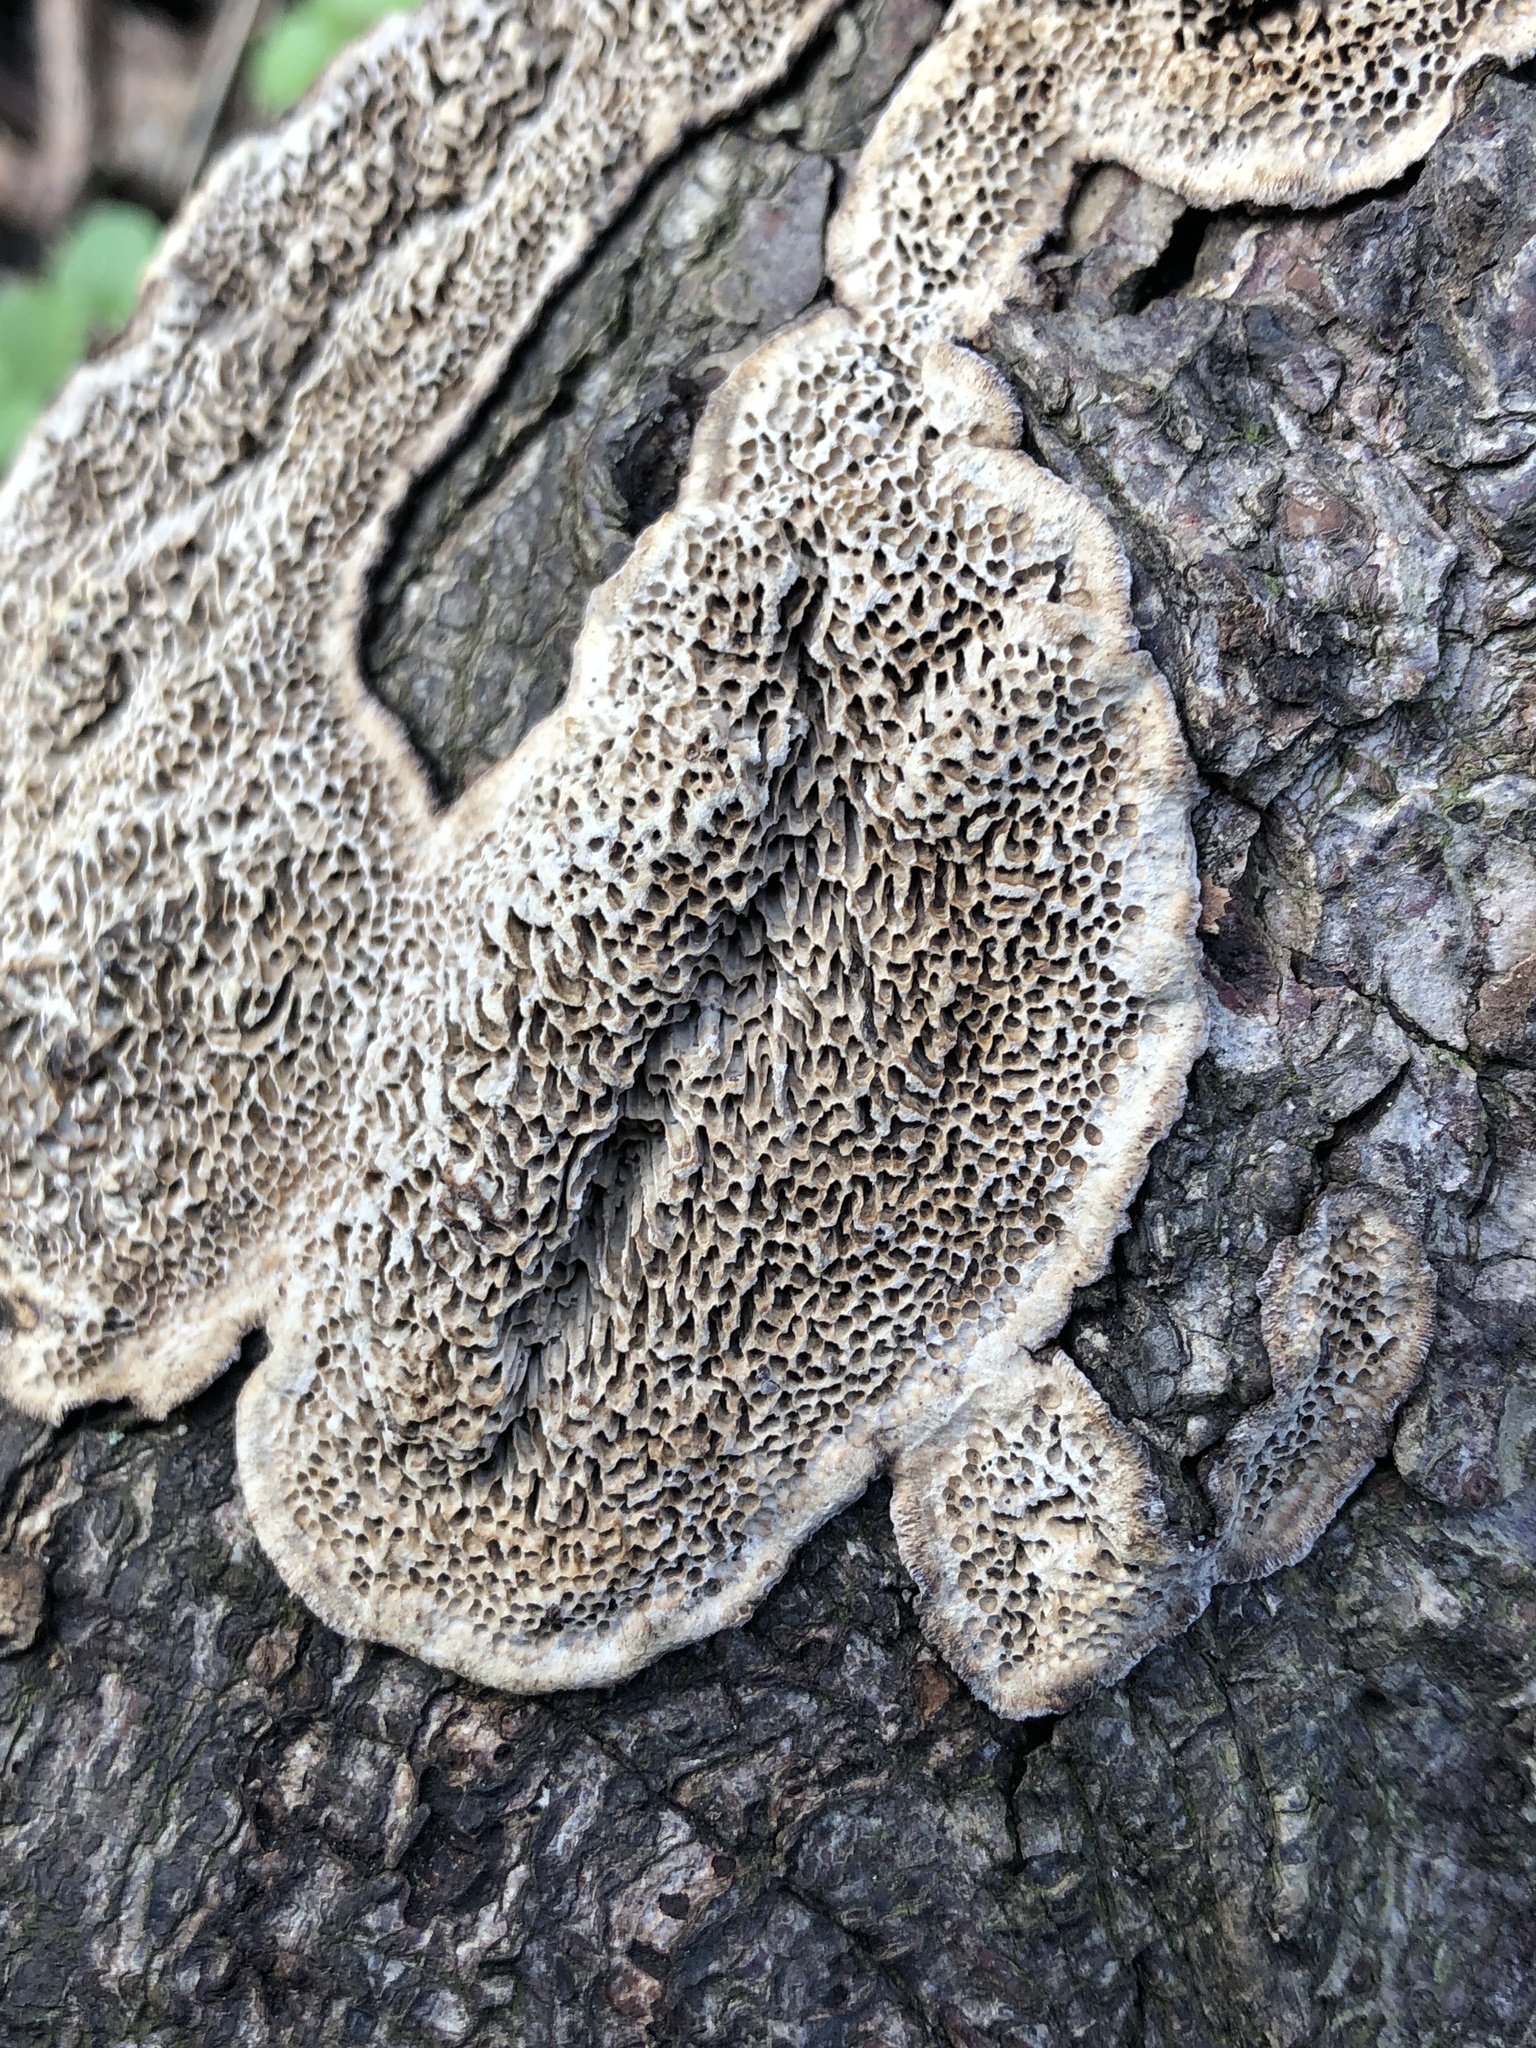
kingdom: Fungi
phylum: Basidiomycota
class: Agaricomycetes
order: Polyporales
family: Polyporaceae
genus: Podofomes
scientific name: Podofomes mollis
